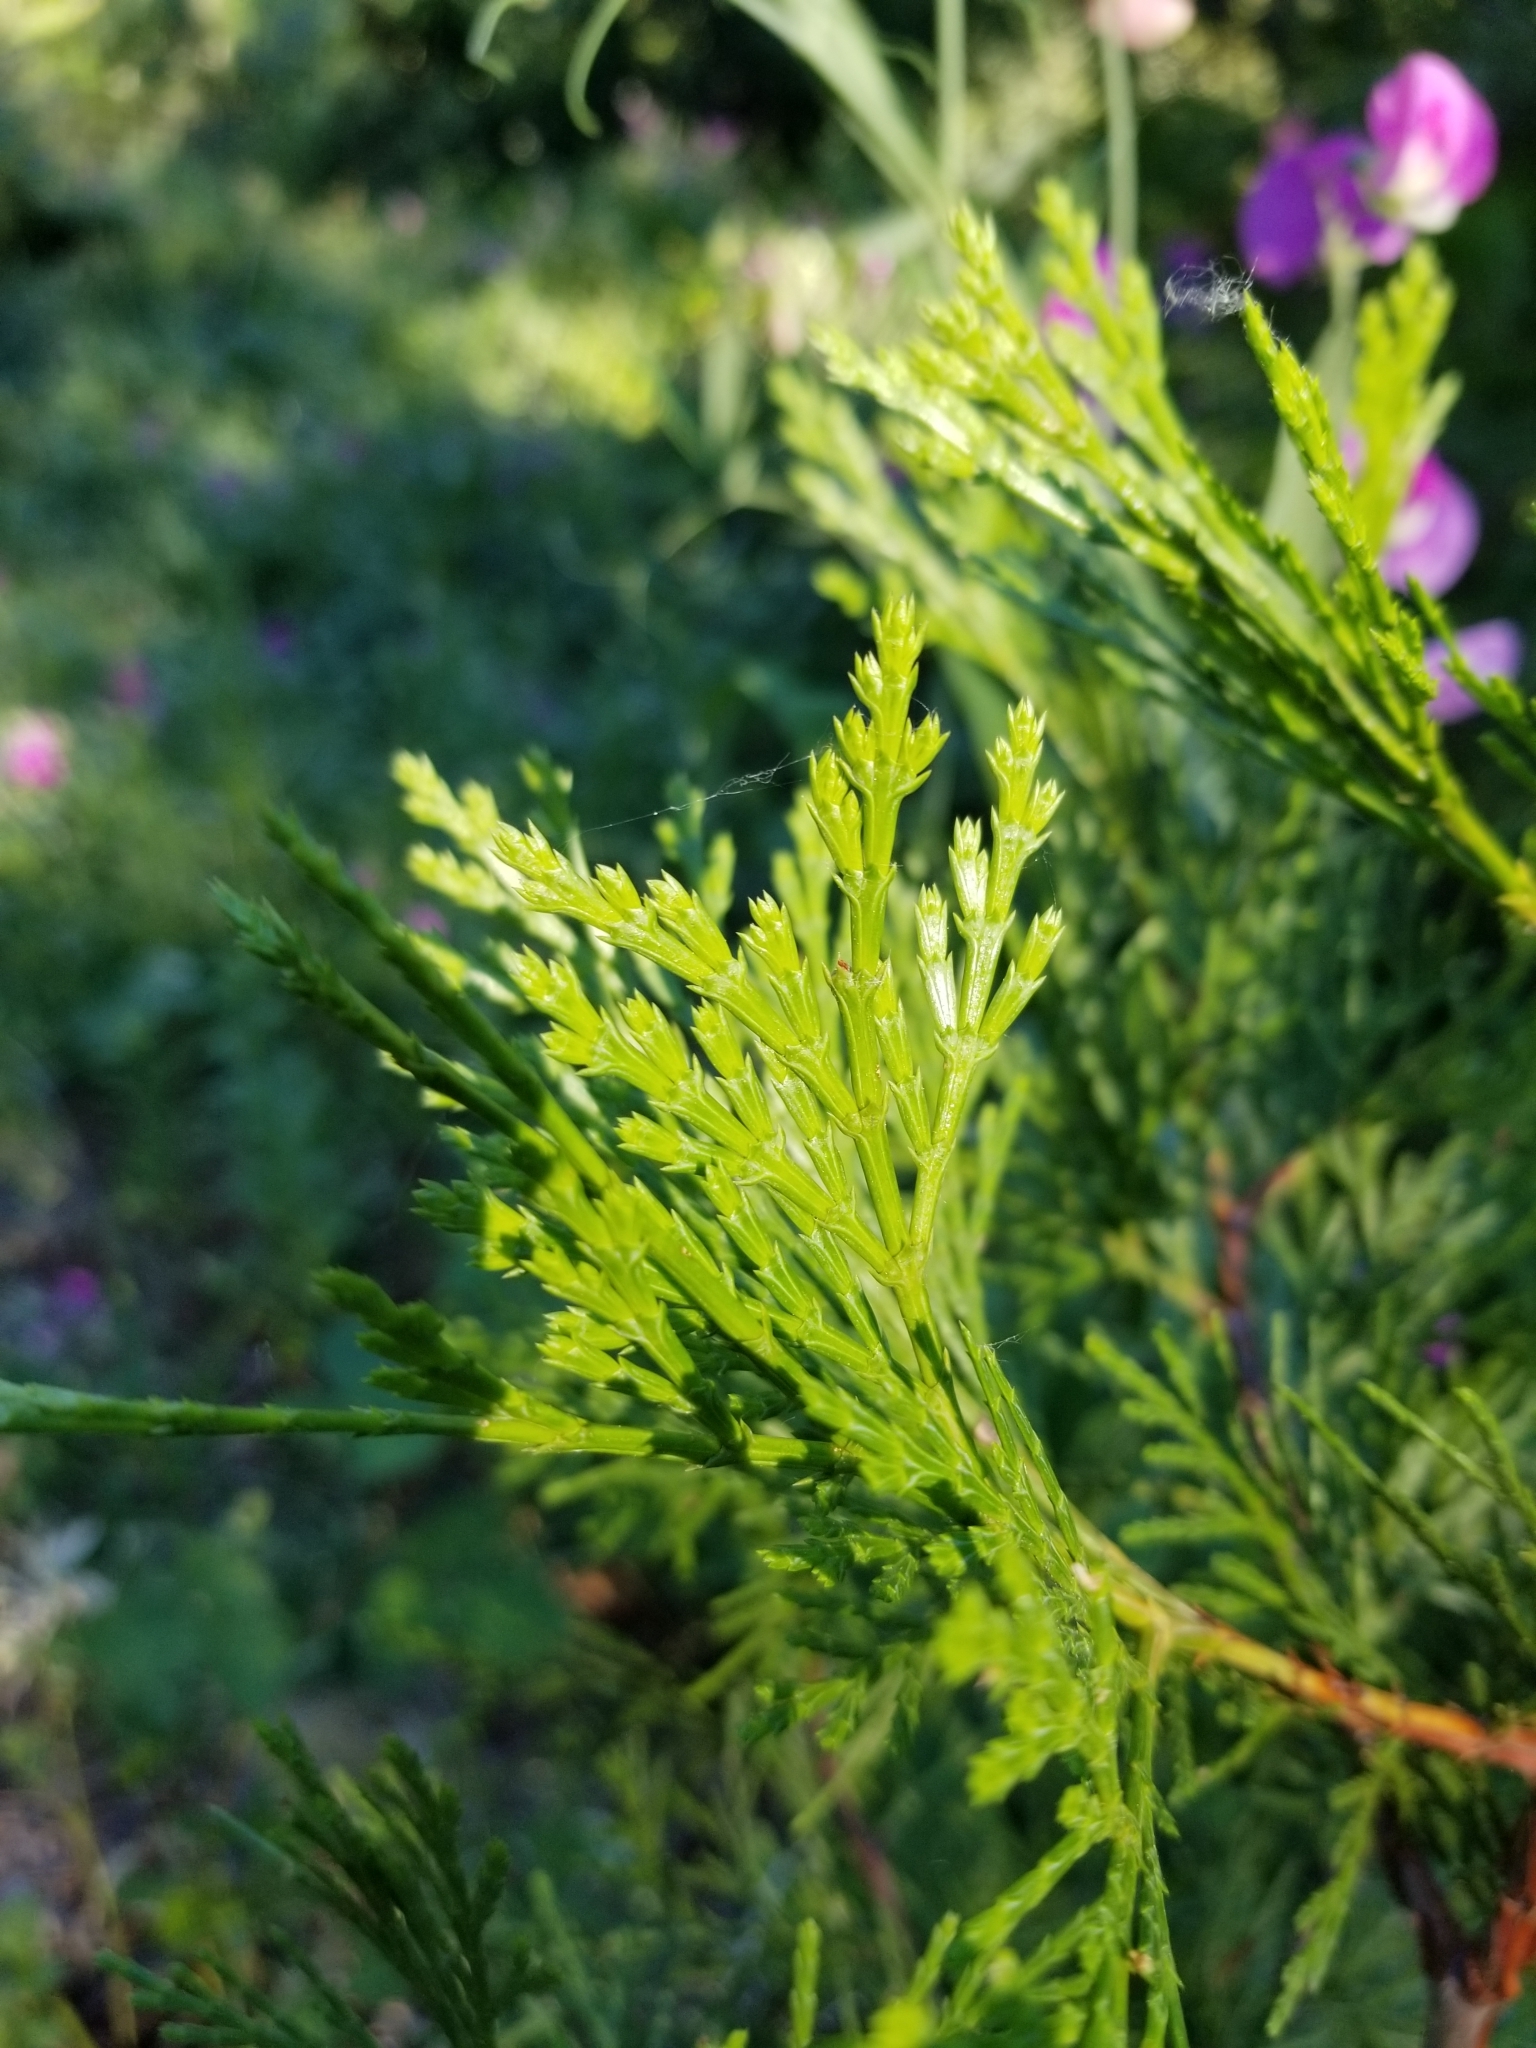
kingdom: Plantae
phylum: Tracheophyta
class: Pinopsida
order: Pinales
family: Cupressaceae
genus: Calocedrus
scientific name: Calocedrus decurrens
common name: Californian incense-cedar
